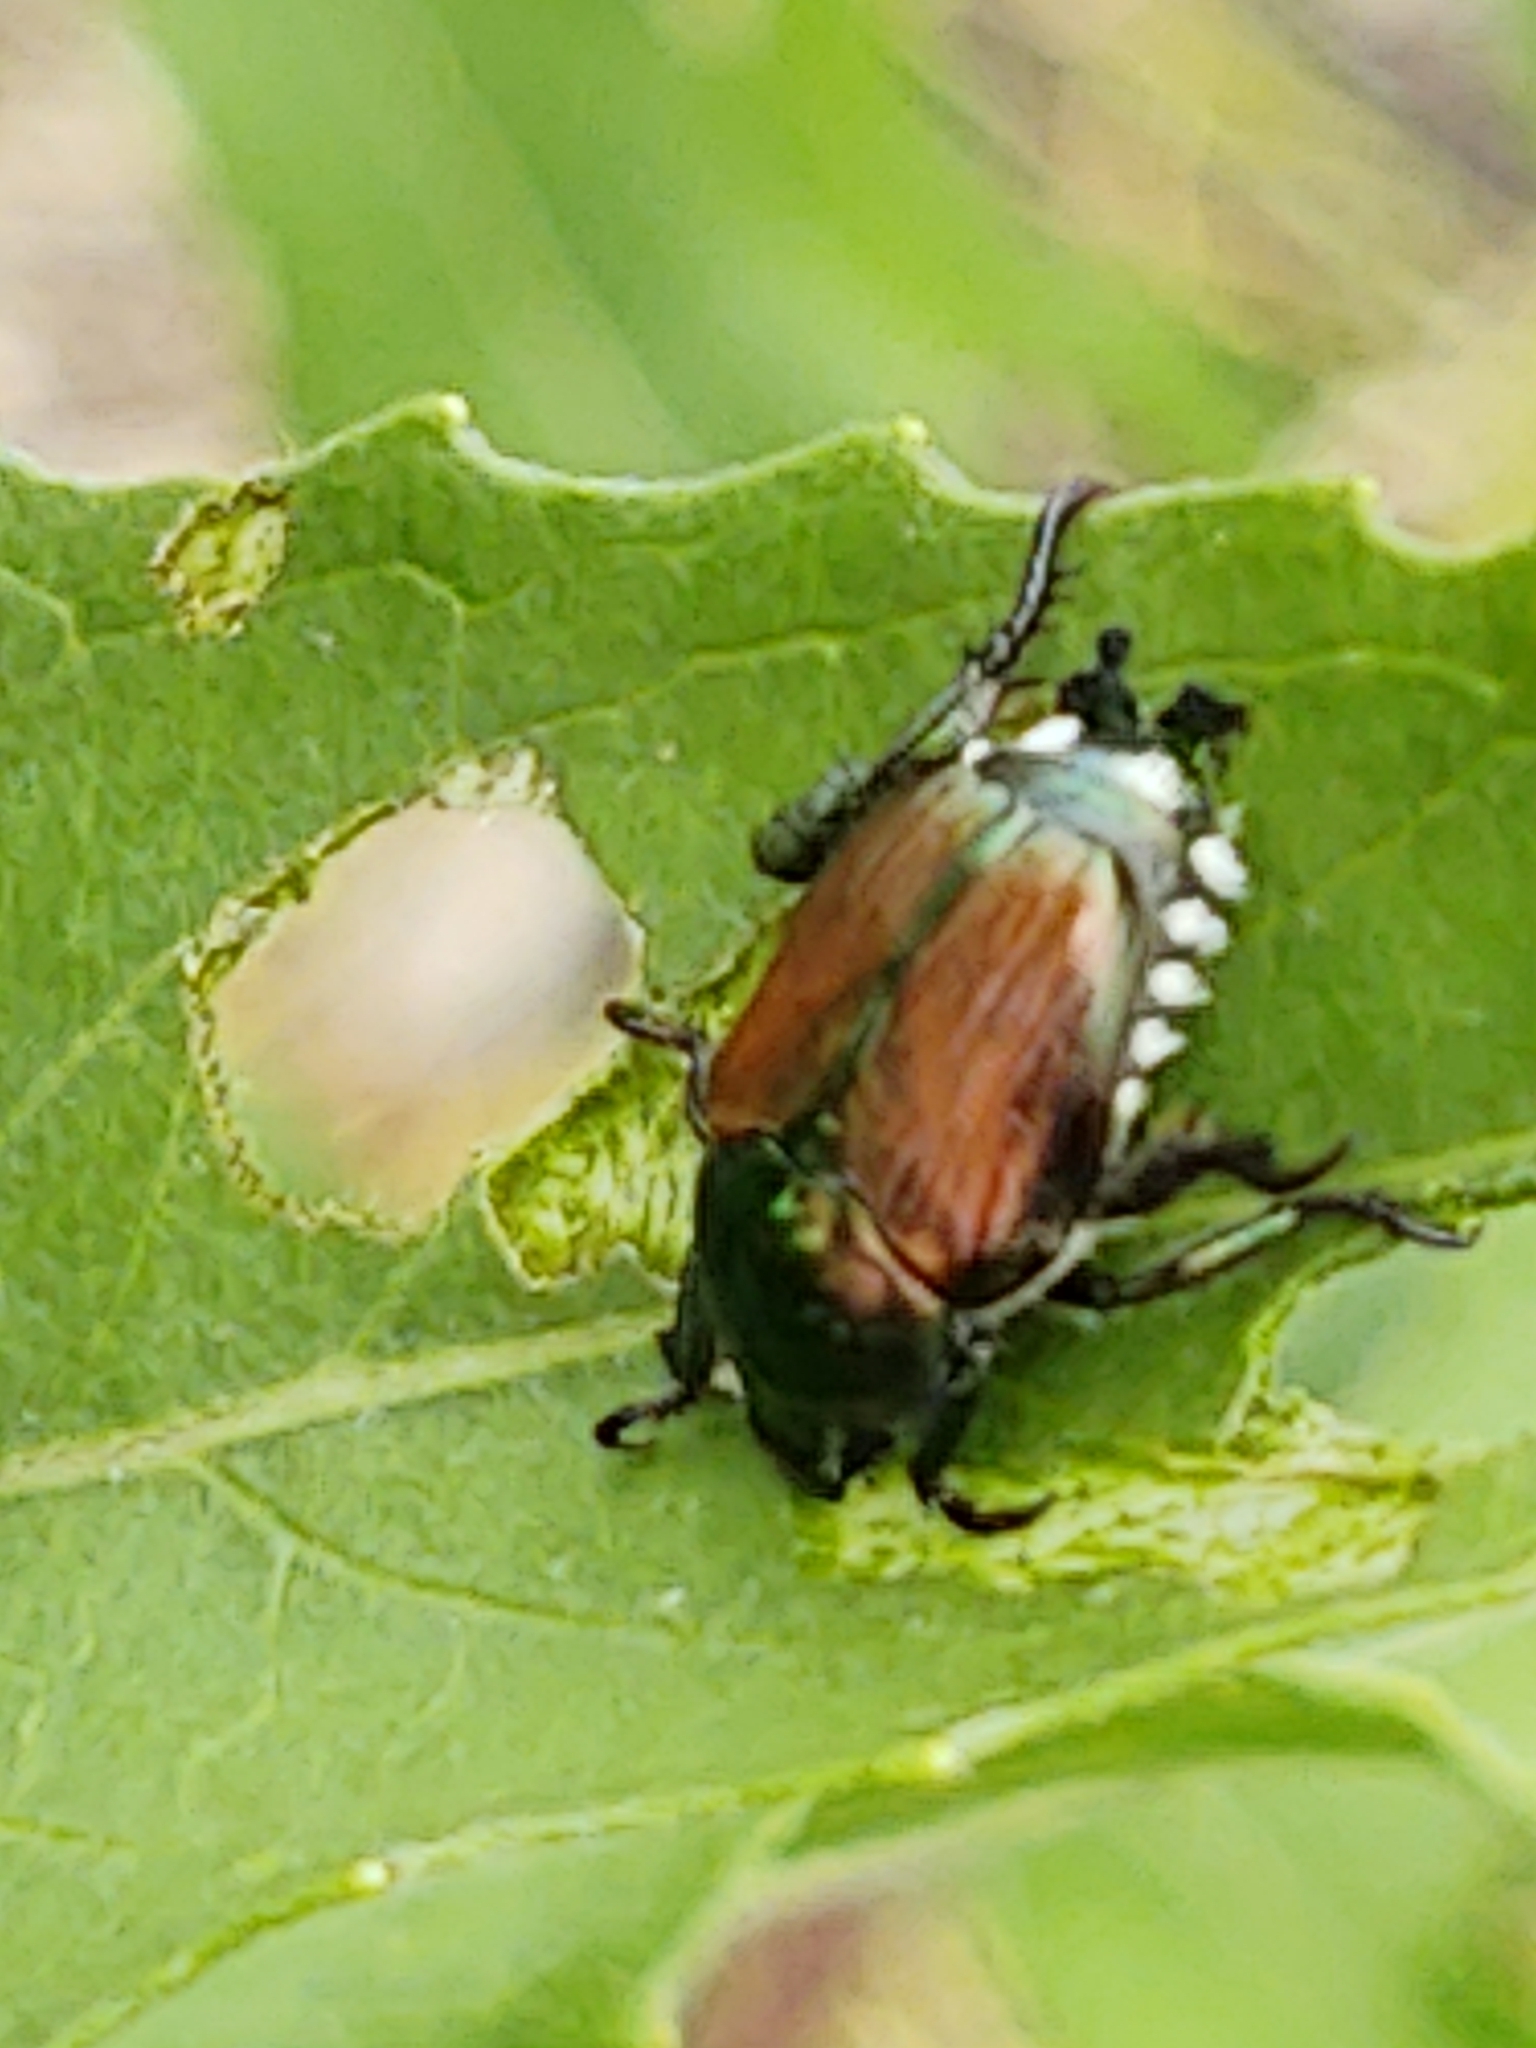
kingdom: Animalia
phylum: Arthropoda
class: Insecta
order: Coleoptera
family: Scarabaeidae
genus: Popillia
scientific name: Popillia japonica
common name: Japanese beetle
